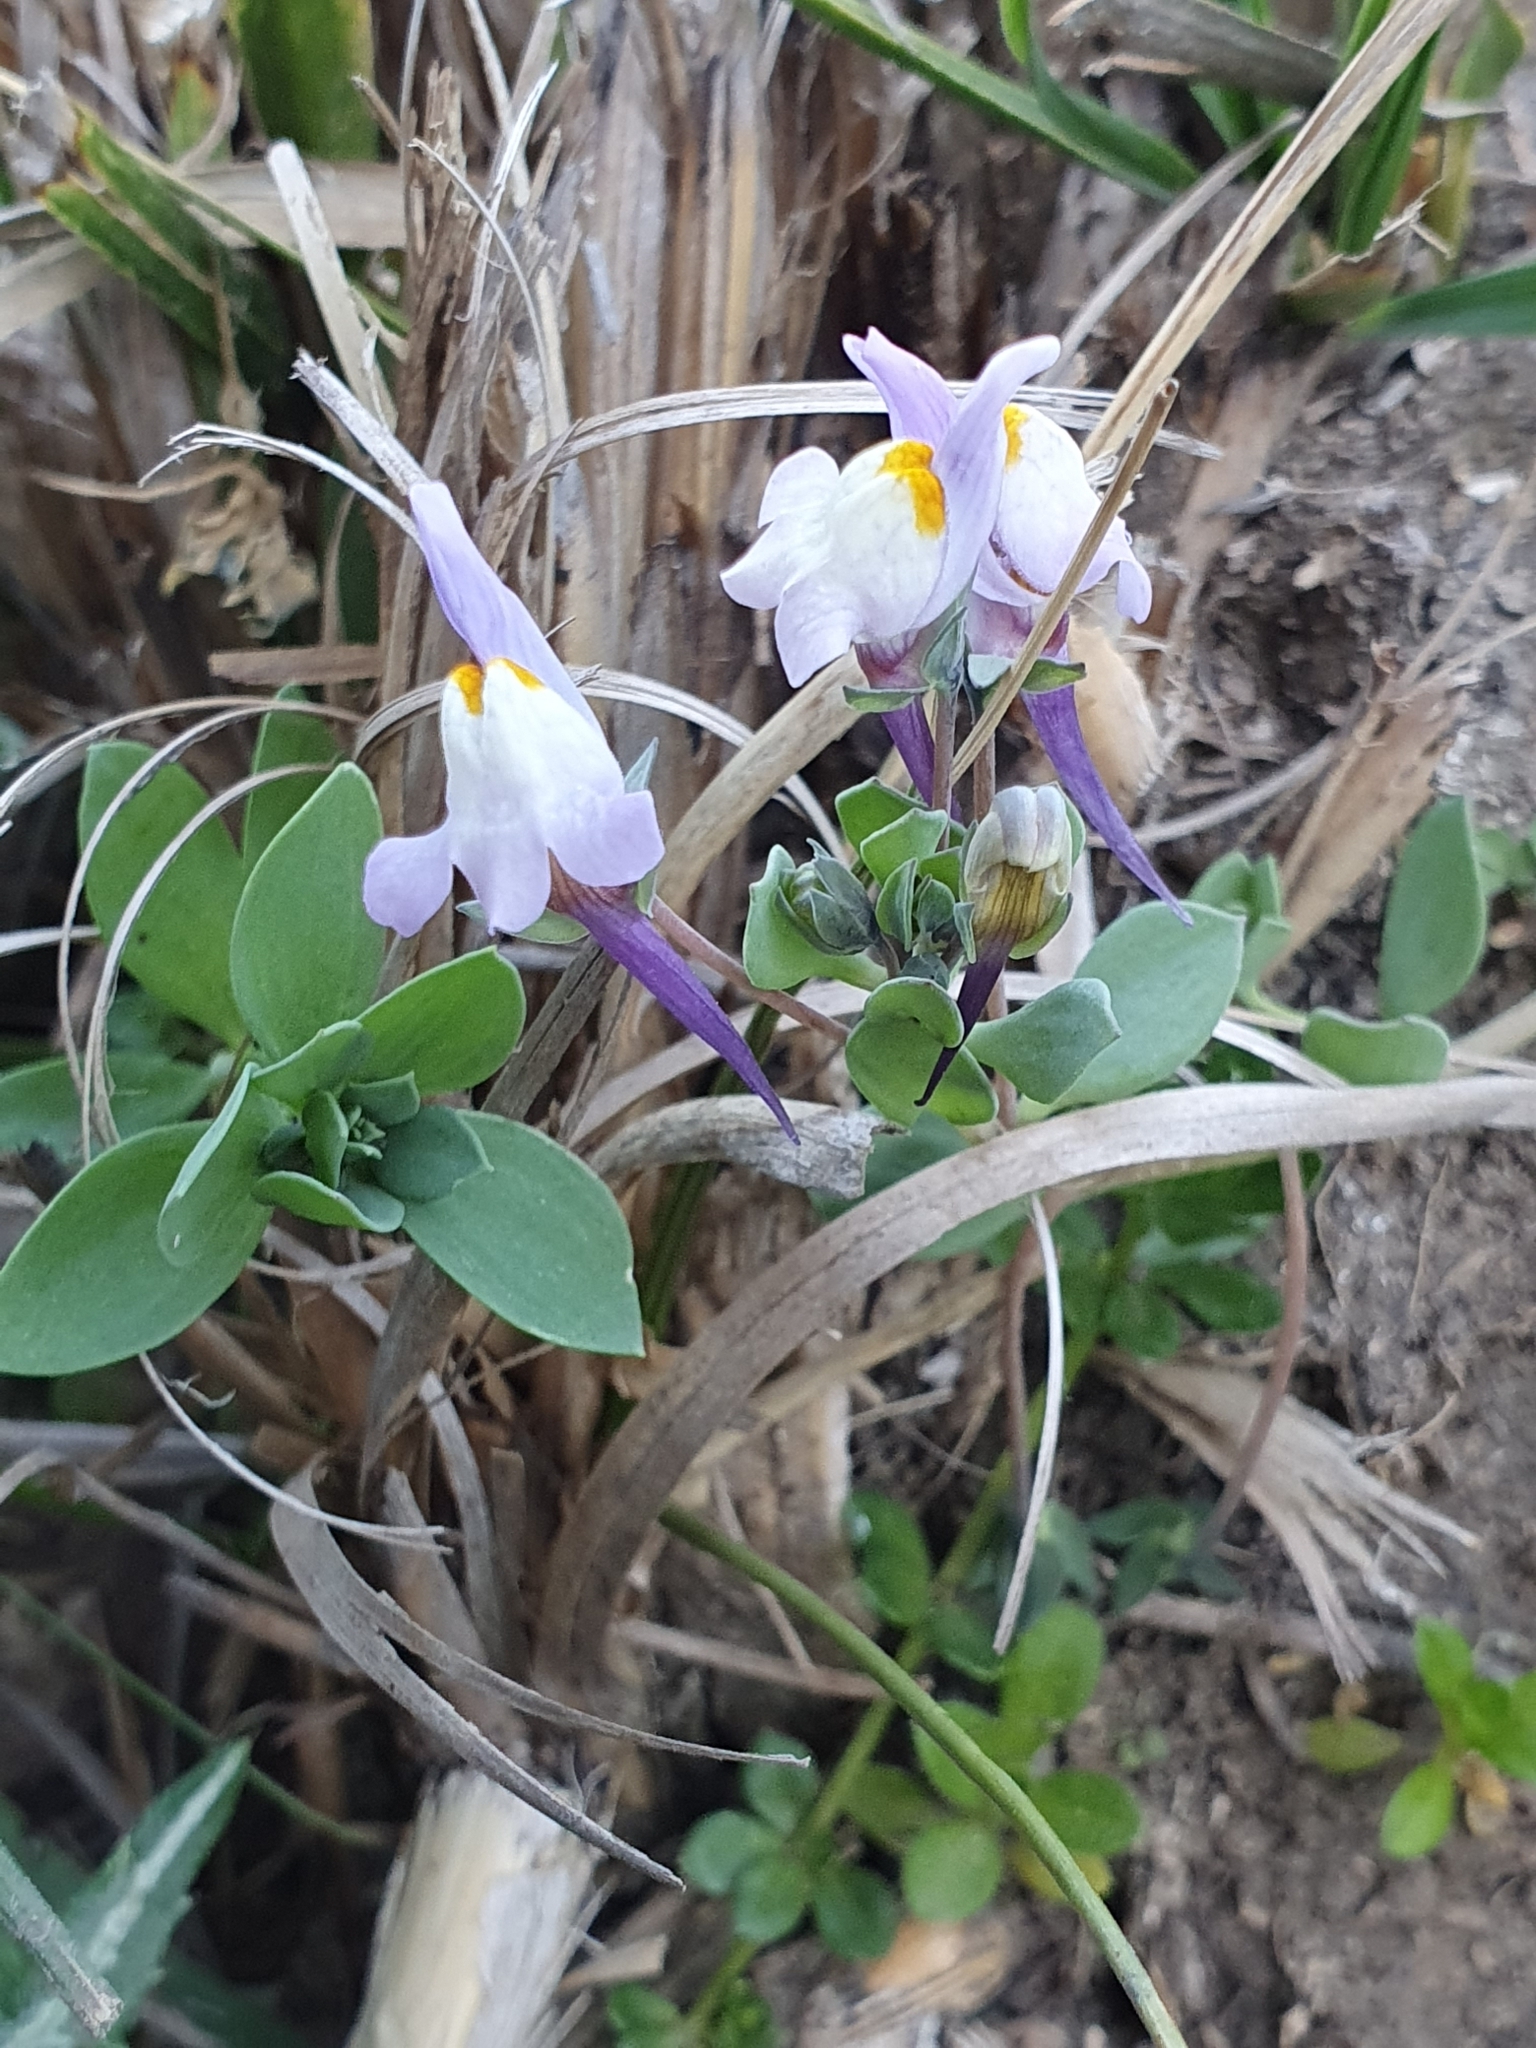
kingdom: Plantae
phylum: Tracheophyta
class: Magnoliopsida
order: Lamiales
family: Plantaginaceae
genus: Linaria
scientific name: Linaria reflexa
